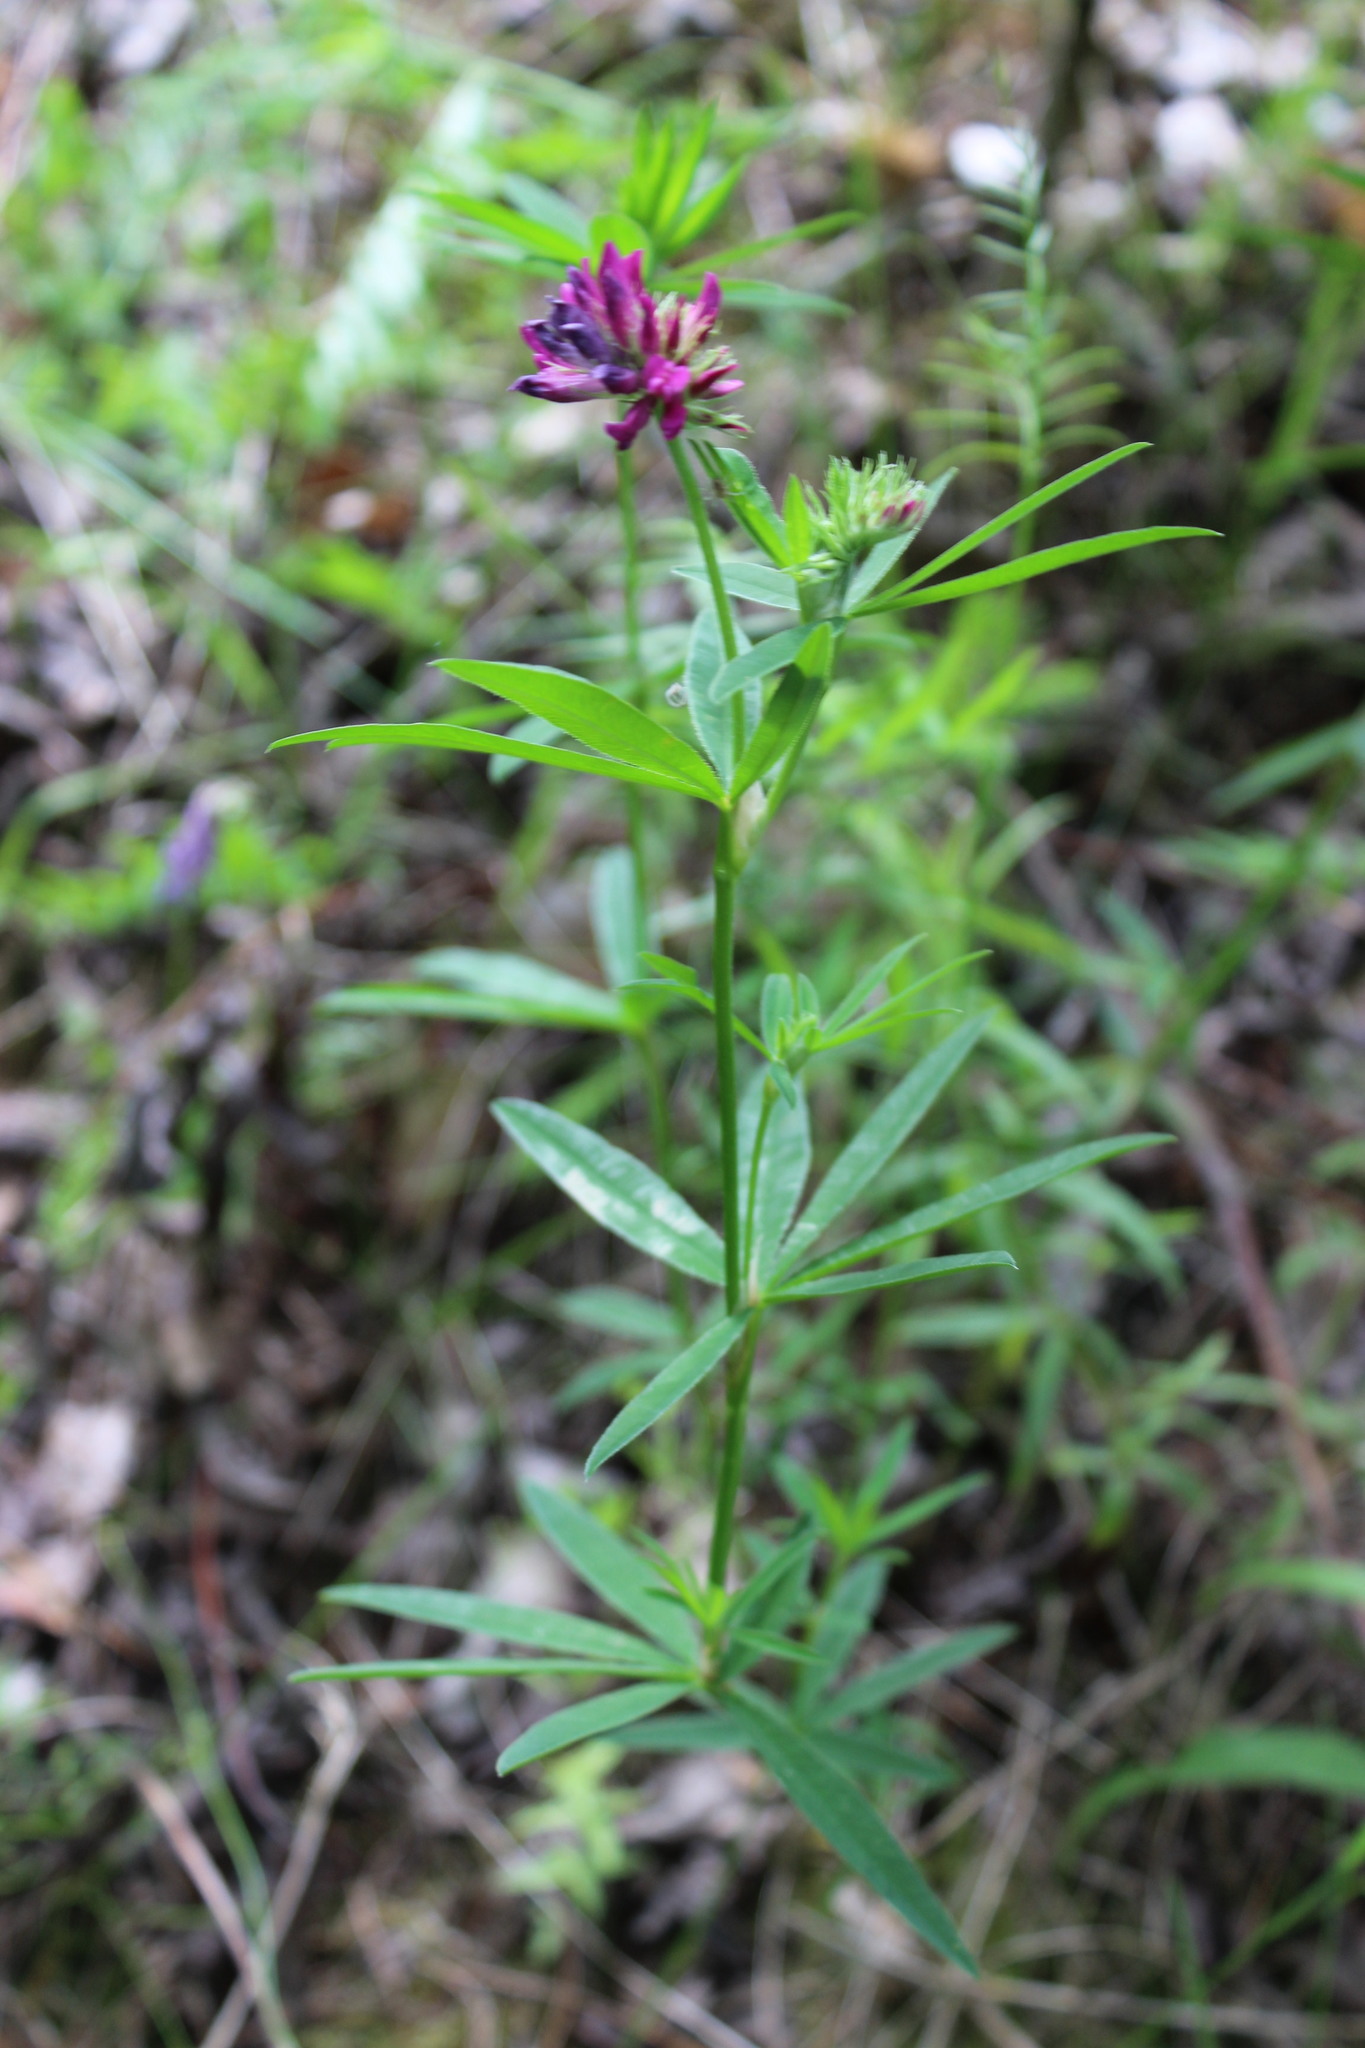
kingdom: Plantae
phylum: Tracheophyta
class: Magnoliopsida
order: Fabales
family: Fabaceae
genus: Trifolium
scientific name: Trifolium lupinaster
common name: Lupine clover
